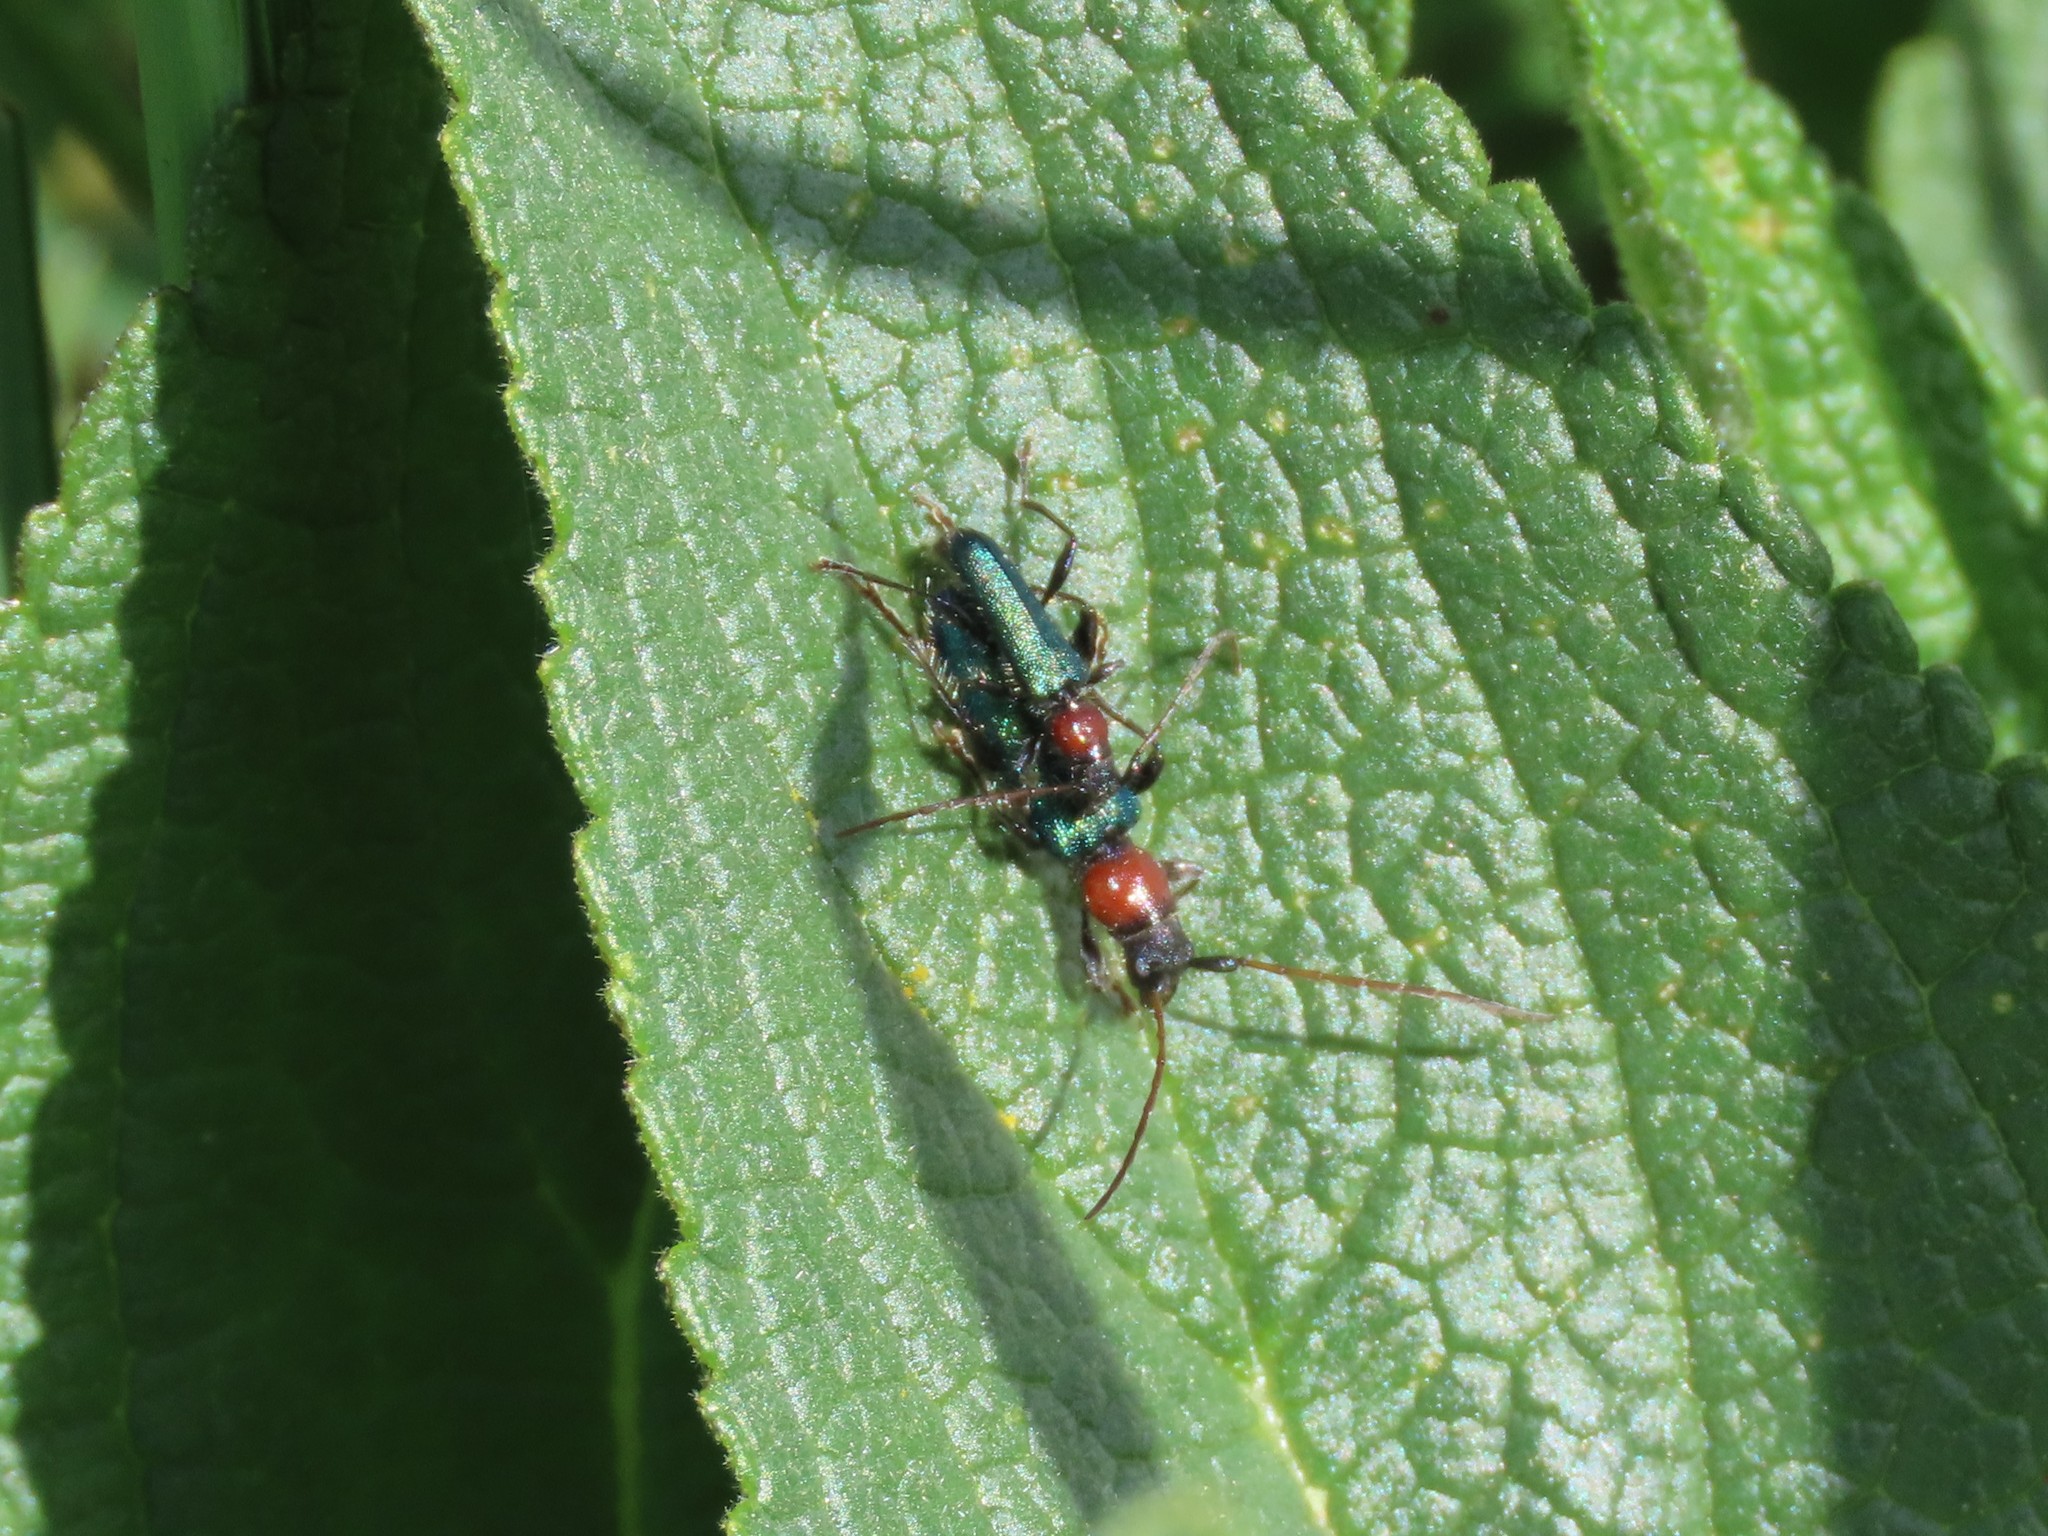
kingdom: Animalia
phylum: Arthropoda
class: Insecta
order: Coleoptera
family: Cerambycidae
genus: Certallum
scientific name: Certallum ebulinum
